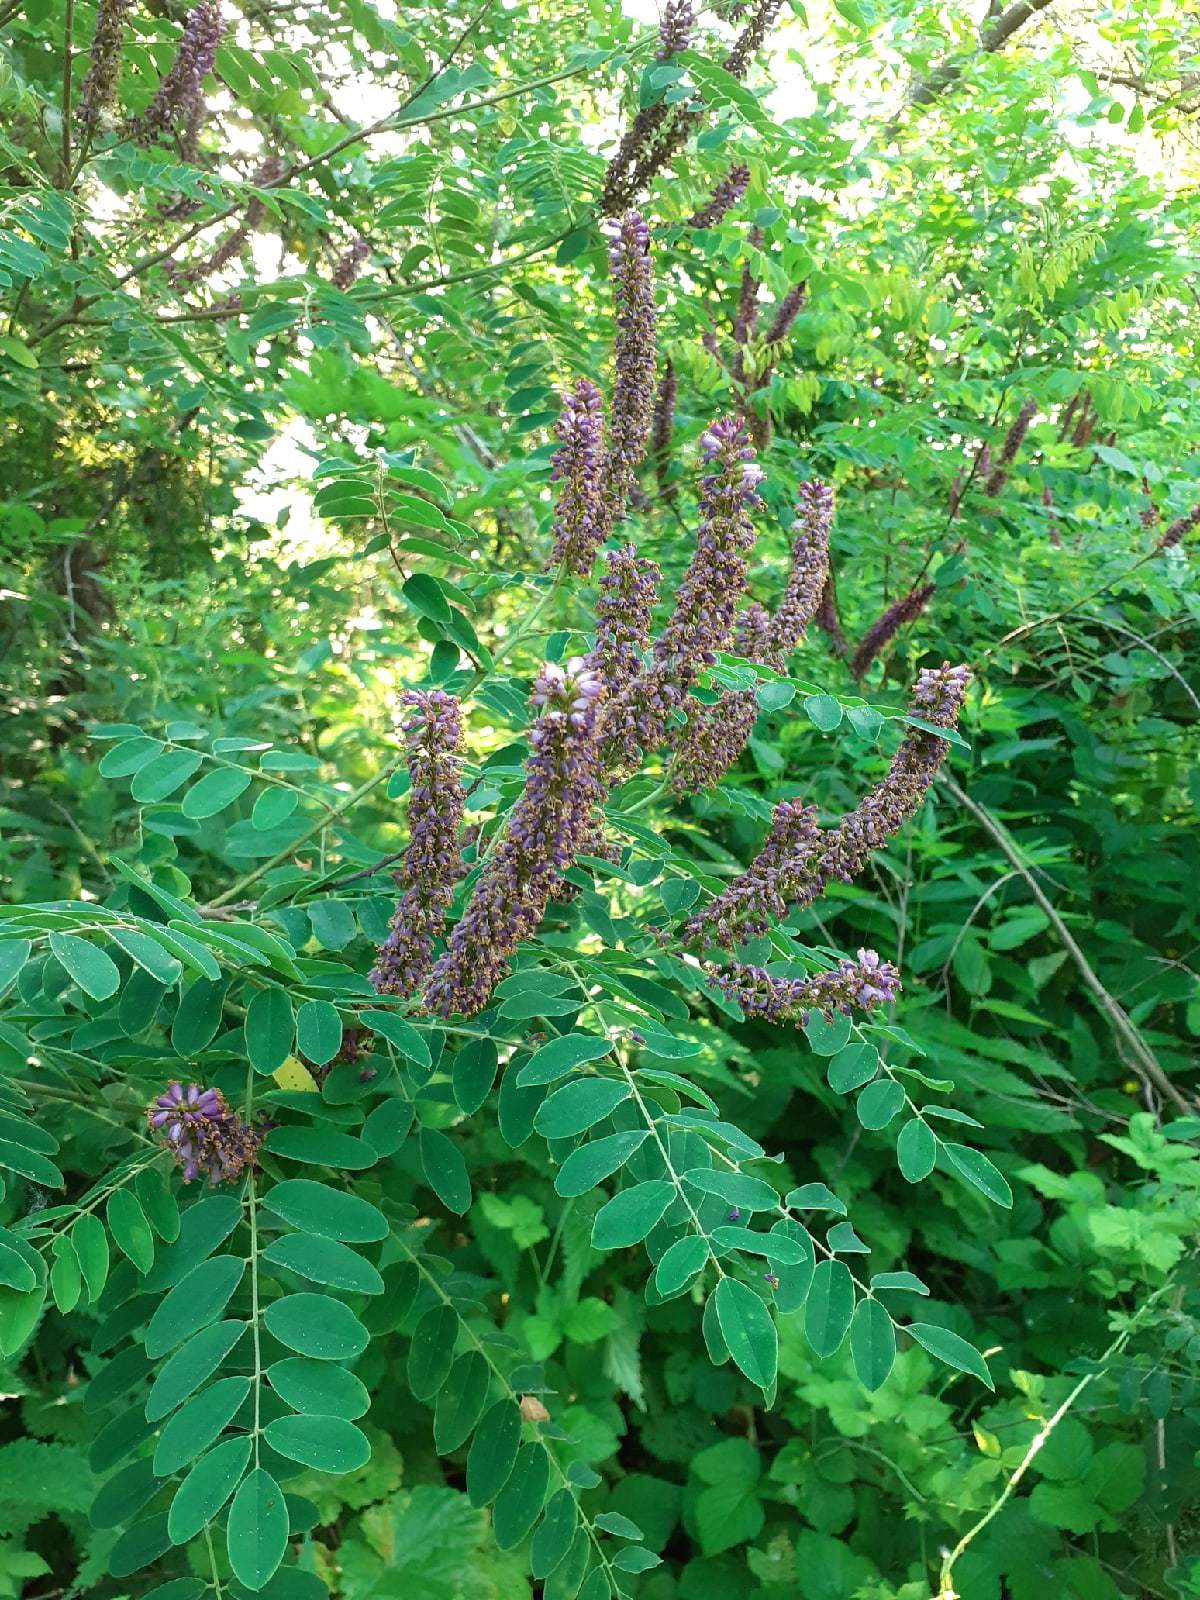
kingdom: Plantae
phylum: Tracheophyta
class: Magnoliopsida
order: Fabales
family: Fabaceae
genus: Amorpha
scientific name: Amorpha fruticosa
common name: False indigo
